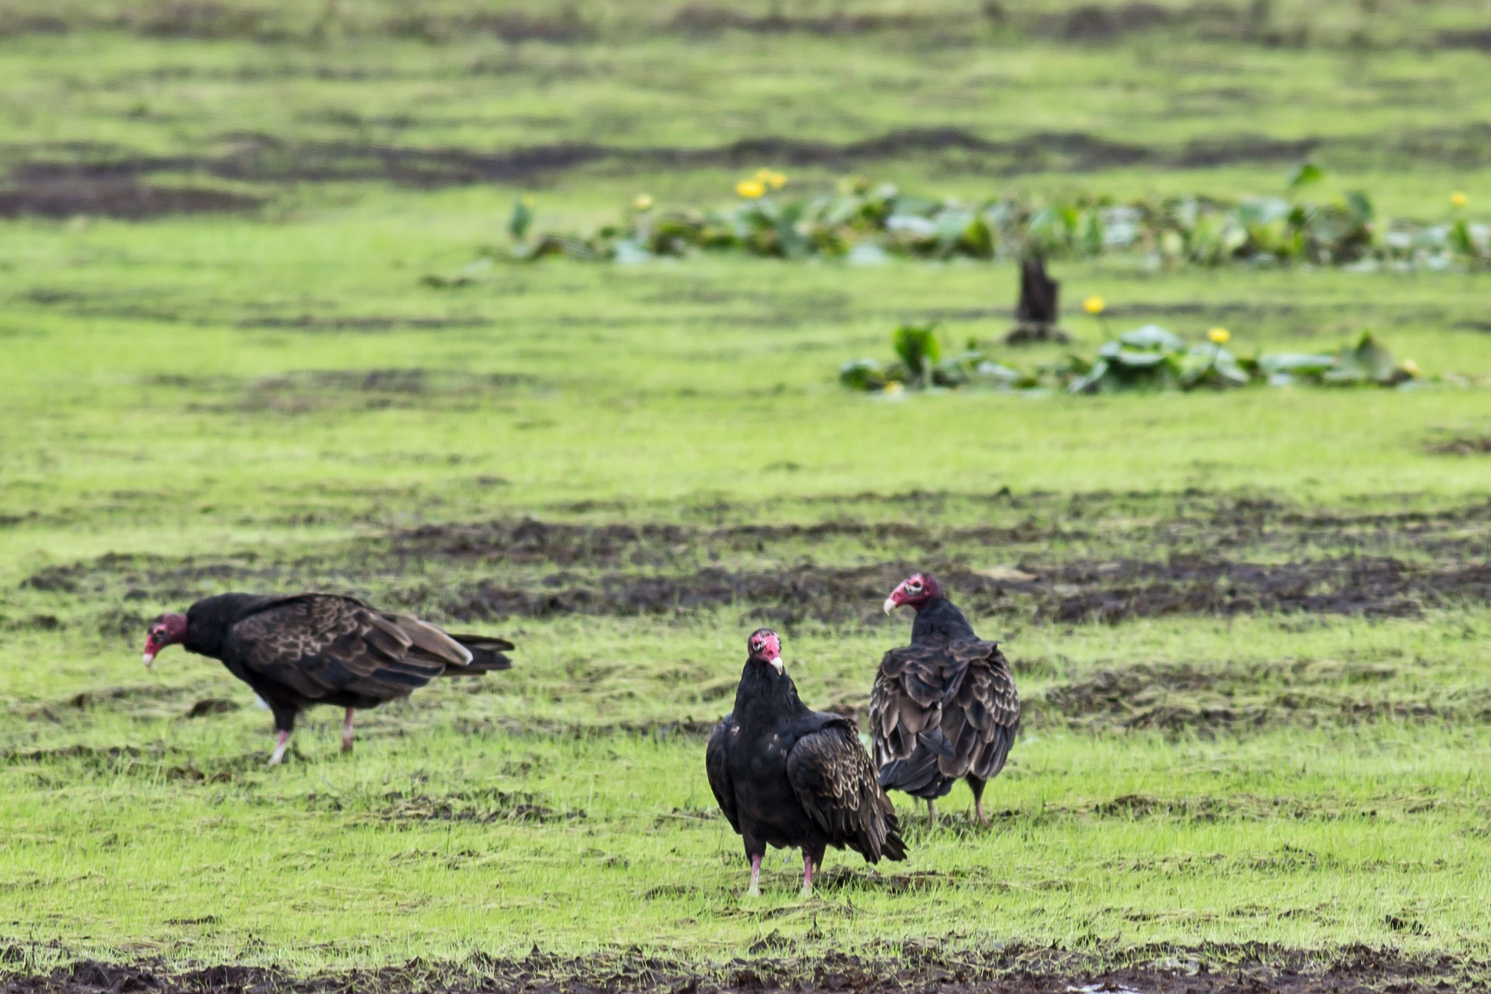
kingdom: Animalia
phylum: Chordata
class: Aves
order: Accipitriformes
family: Cathartidae
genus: Cathartes
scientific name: Cathartes aura
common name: Turkey vulture
